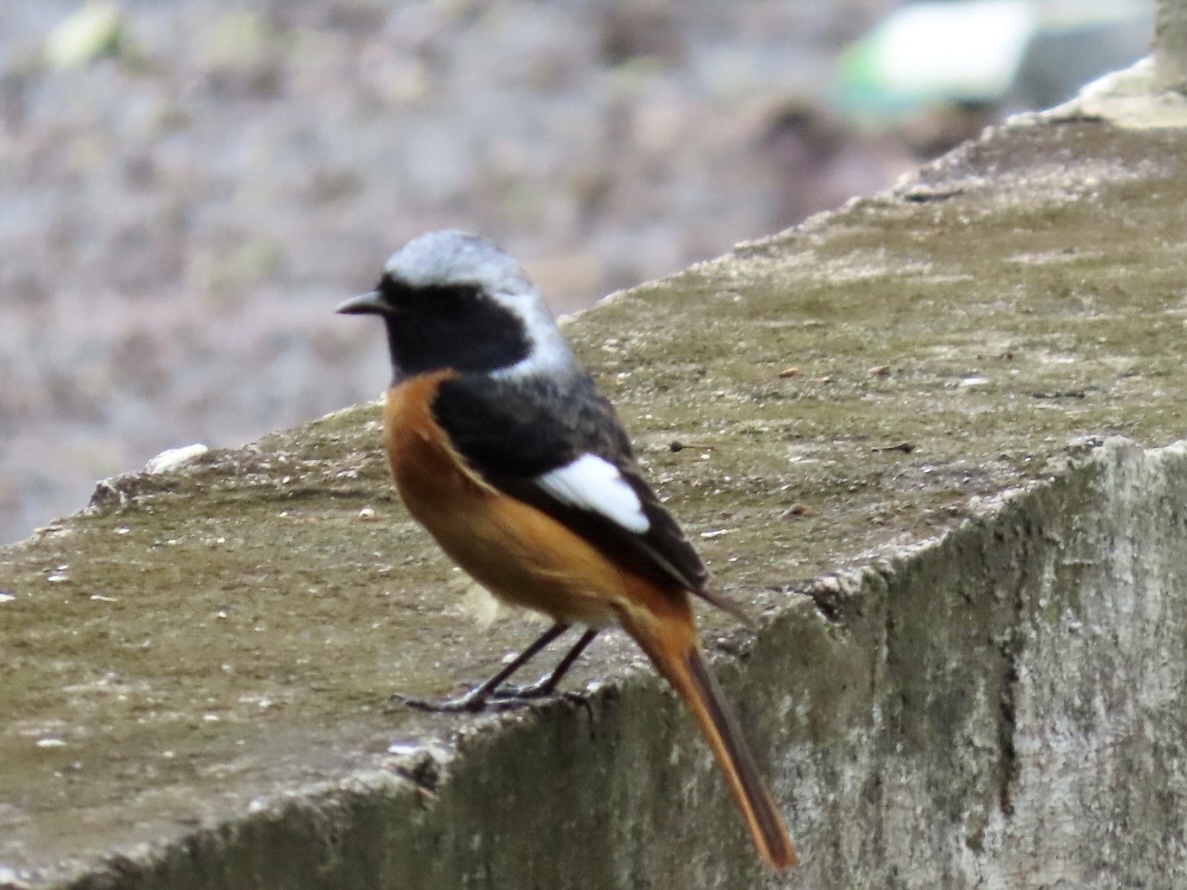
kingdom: Animalia
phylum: Chordata
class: Aves
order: Passeriformes
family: Muscicapidae
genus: Phoenicurus
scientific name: Phoenicurus auroreus
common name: Daurian redstart
